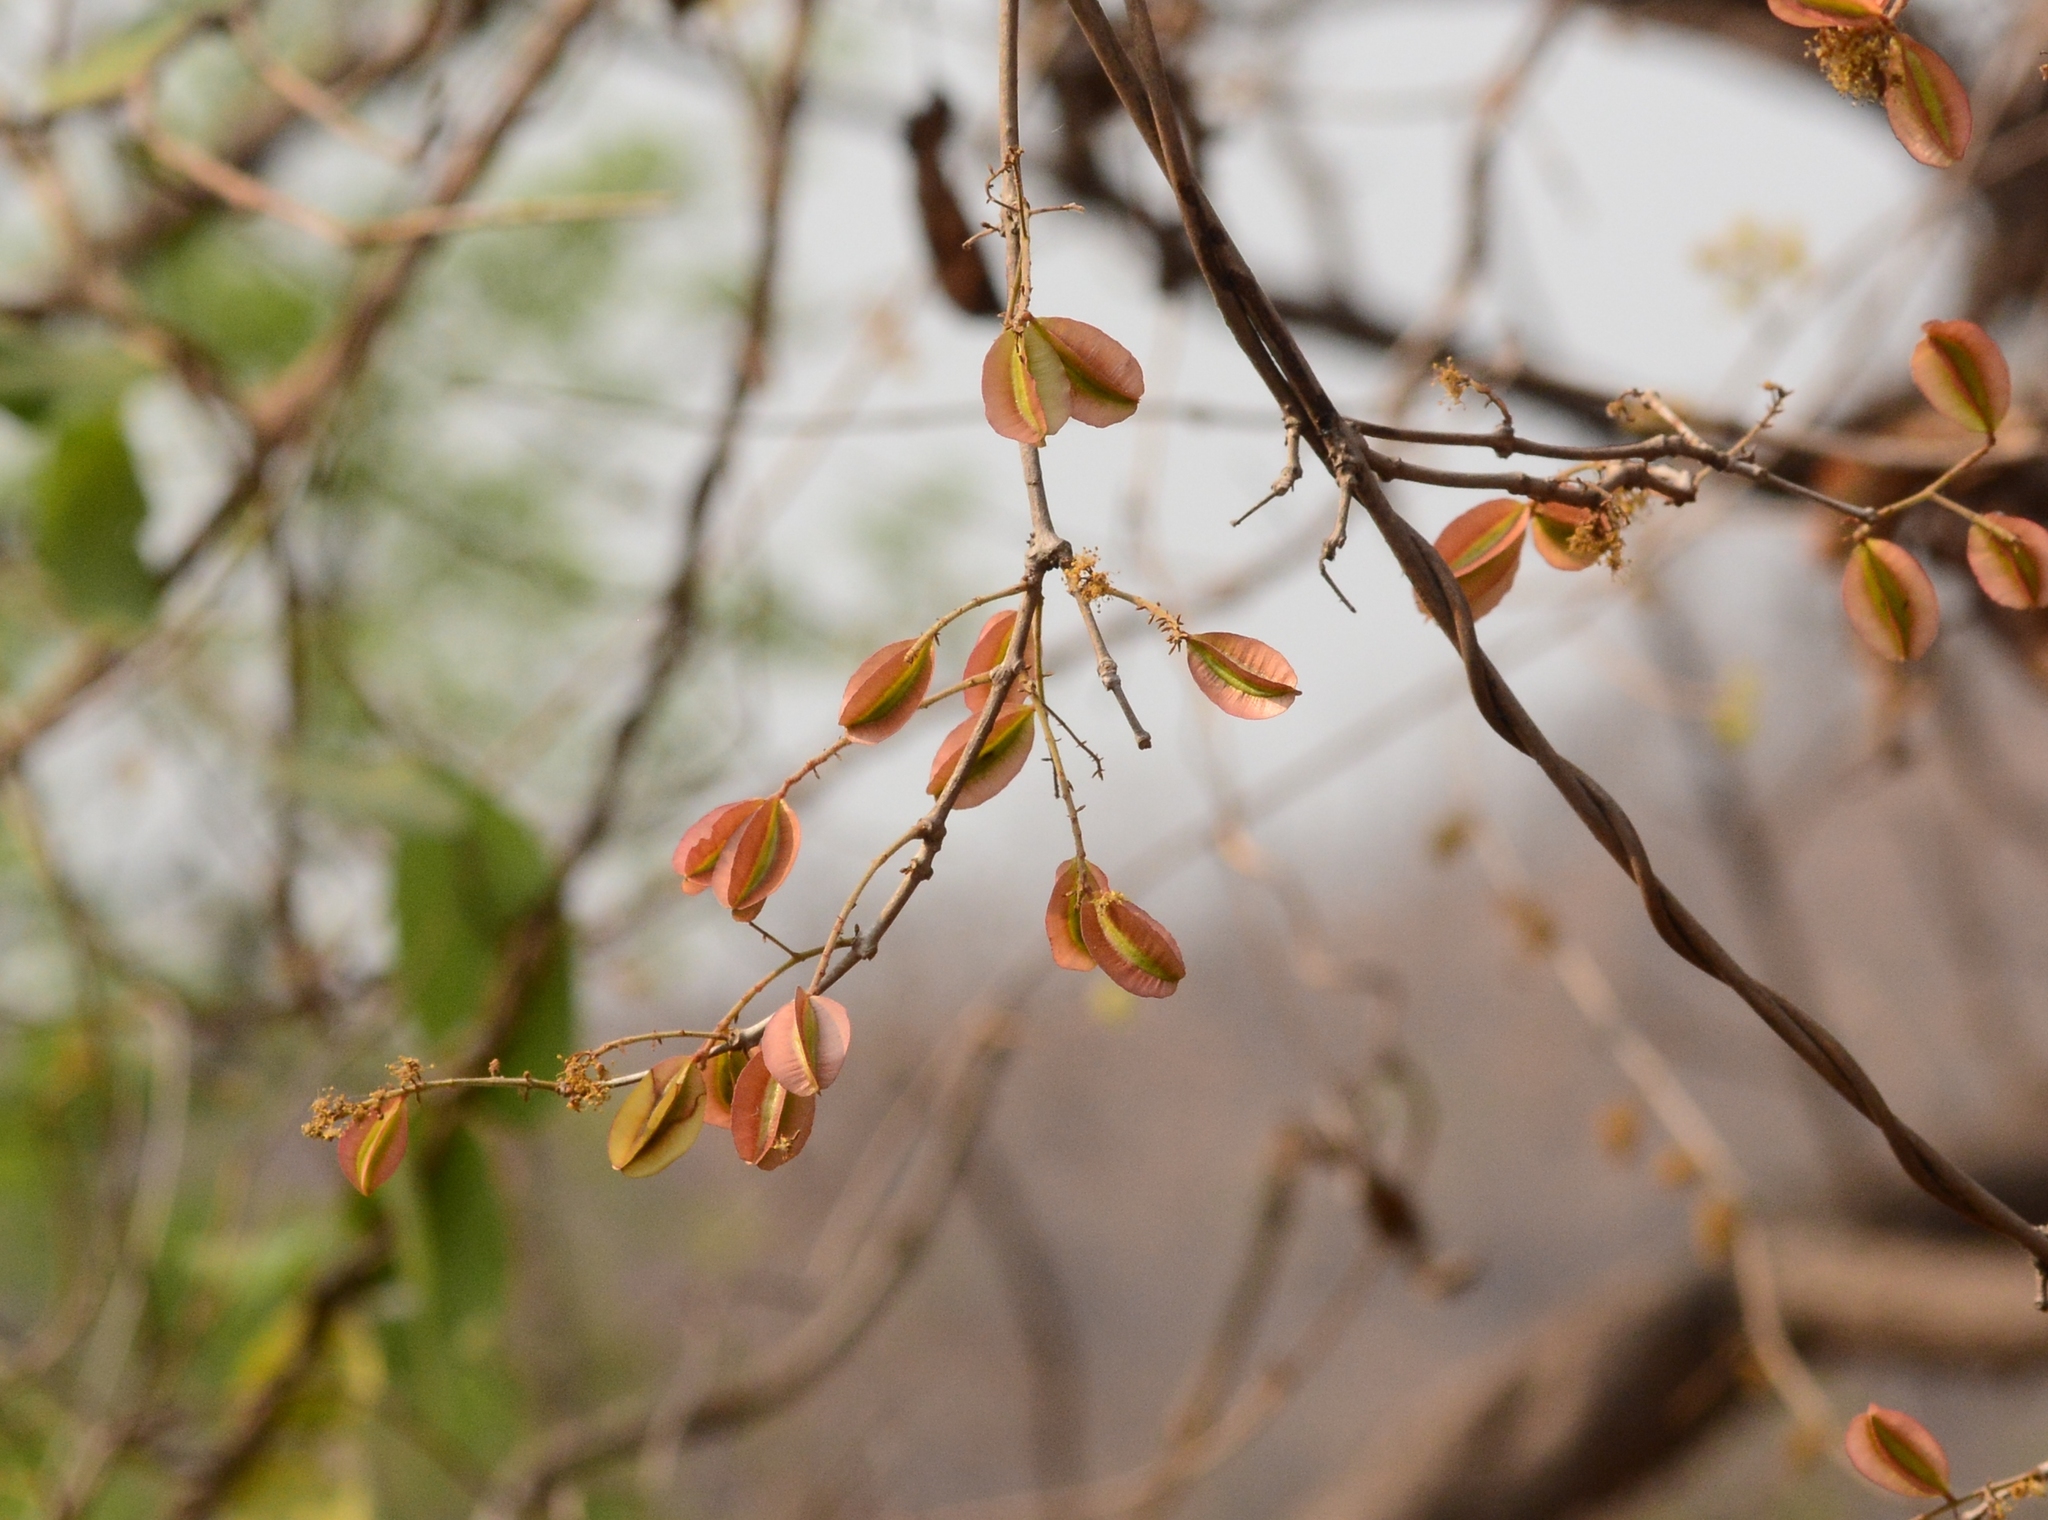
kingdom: Plantae
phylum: Tracheophyta
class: Magnoliopsida
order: Myrtales
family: Combretaceae
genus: Combretum
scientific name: Combretum albidum
